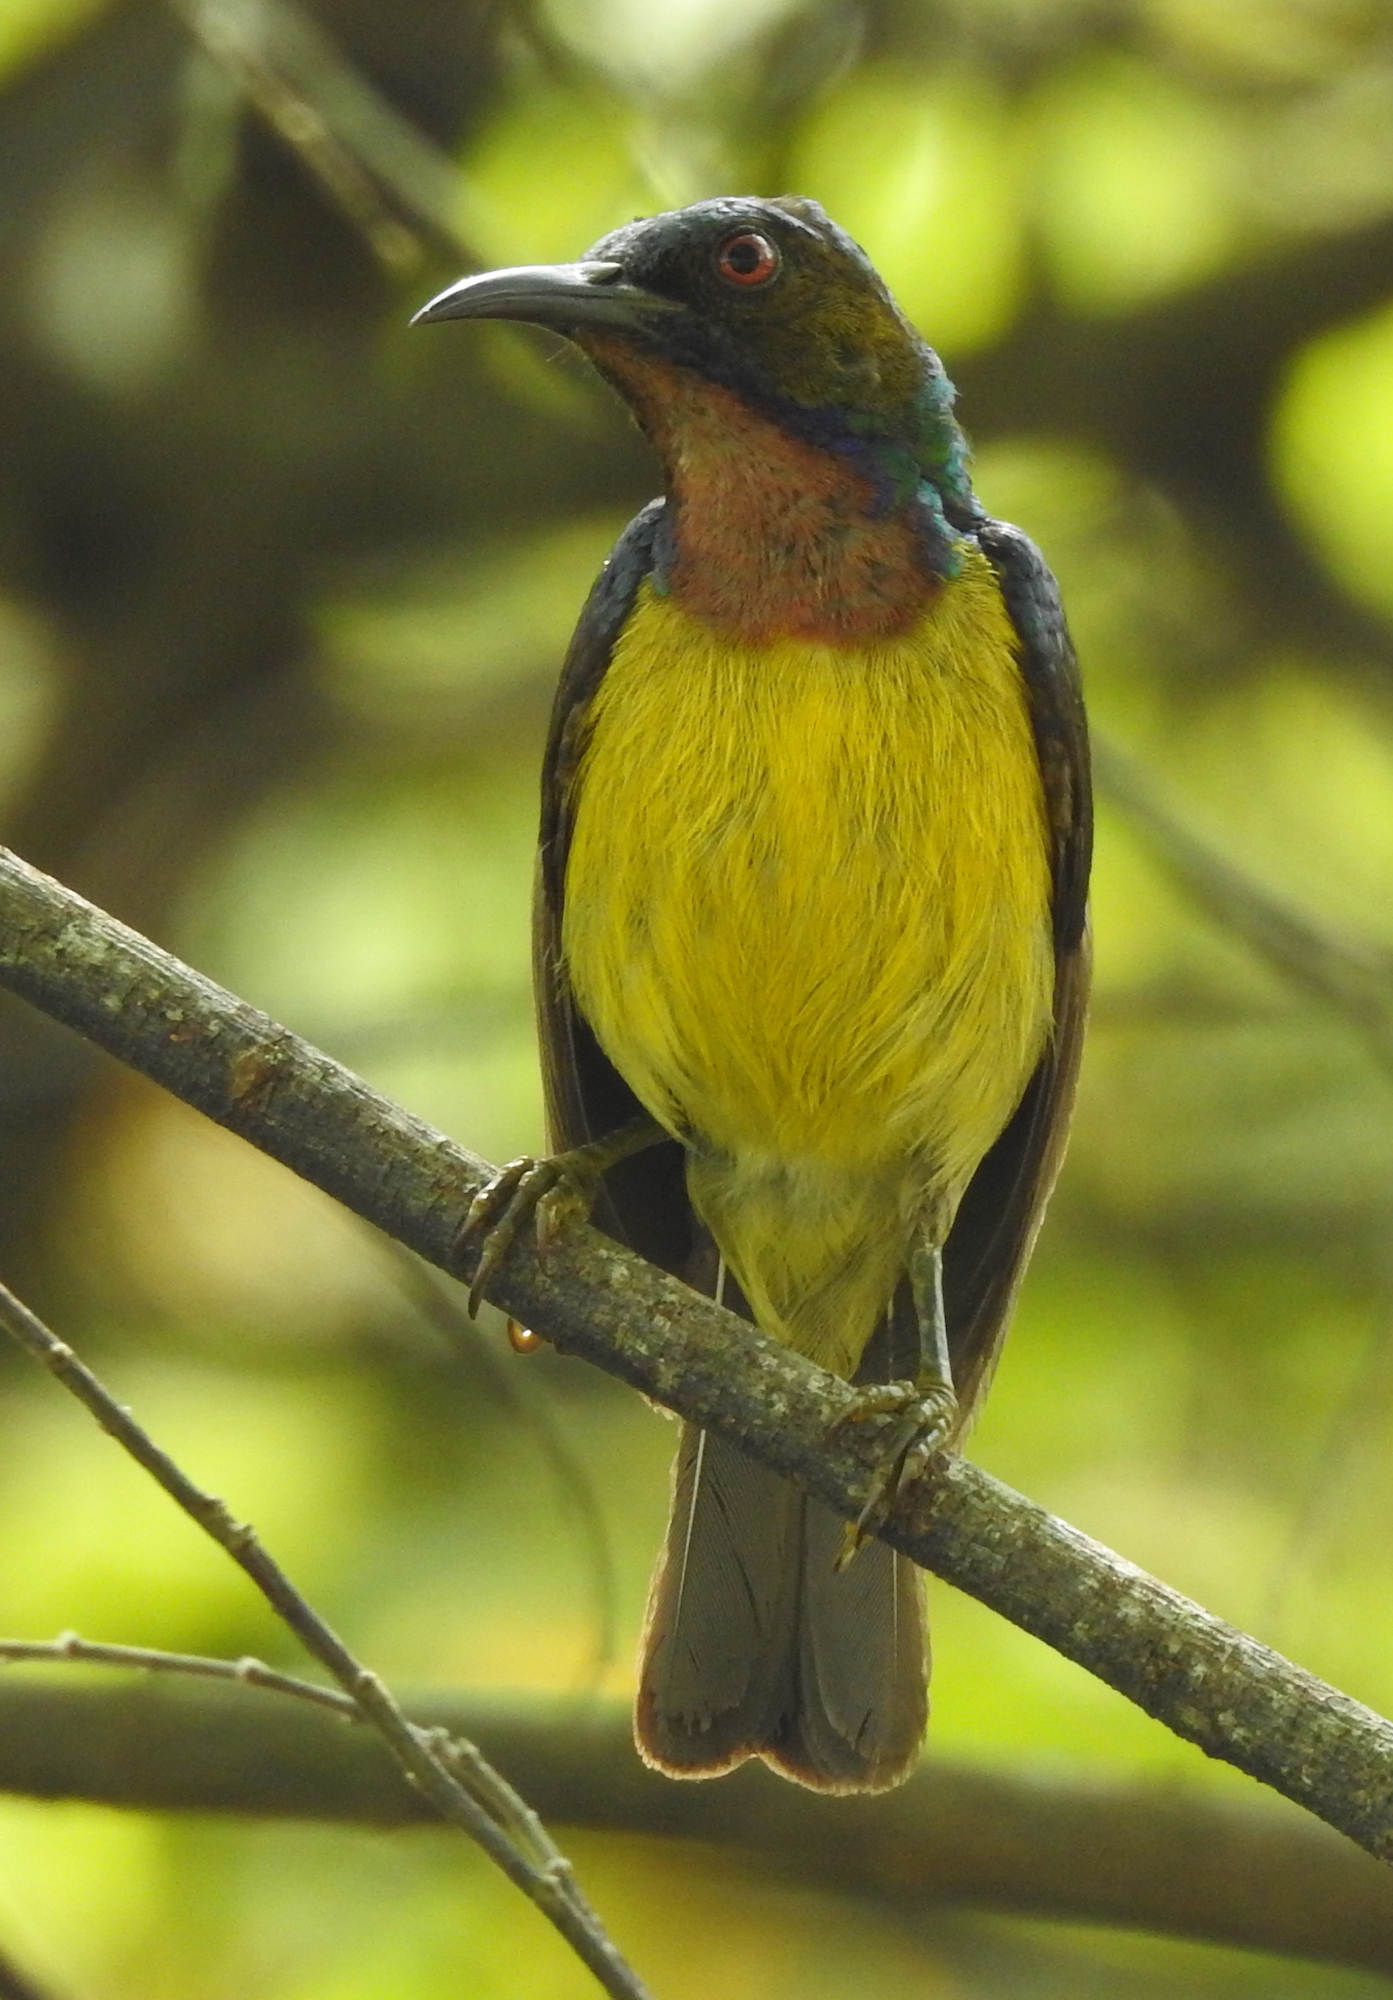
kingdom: Animalia
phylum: Chordata
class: Aves
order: Passeriformes
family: Nectariniidae
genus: Anthreptes
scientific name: Anthreptes malacensis
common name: Brown-throated sunbird
